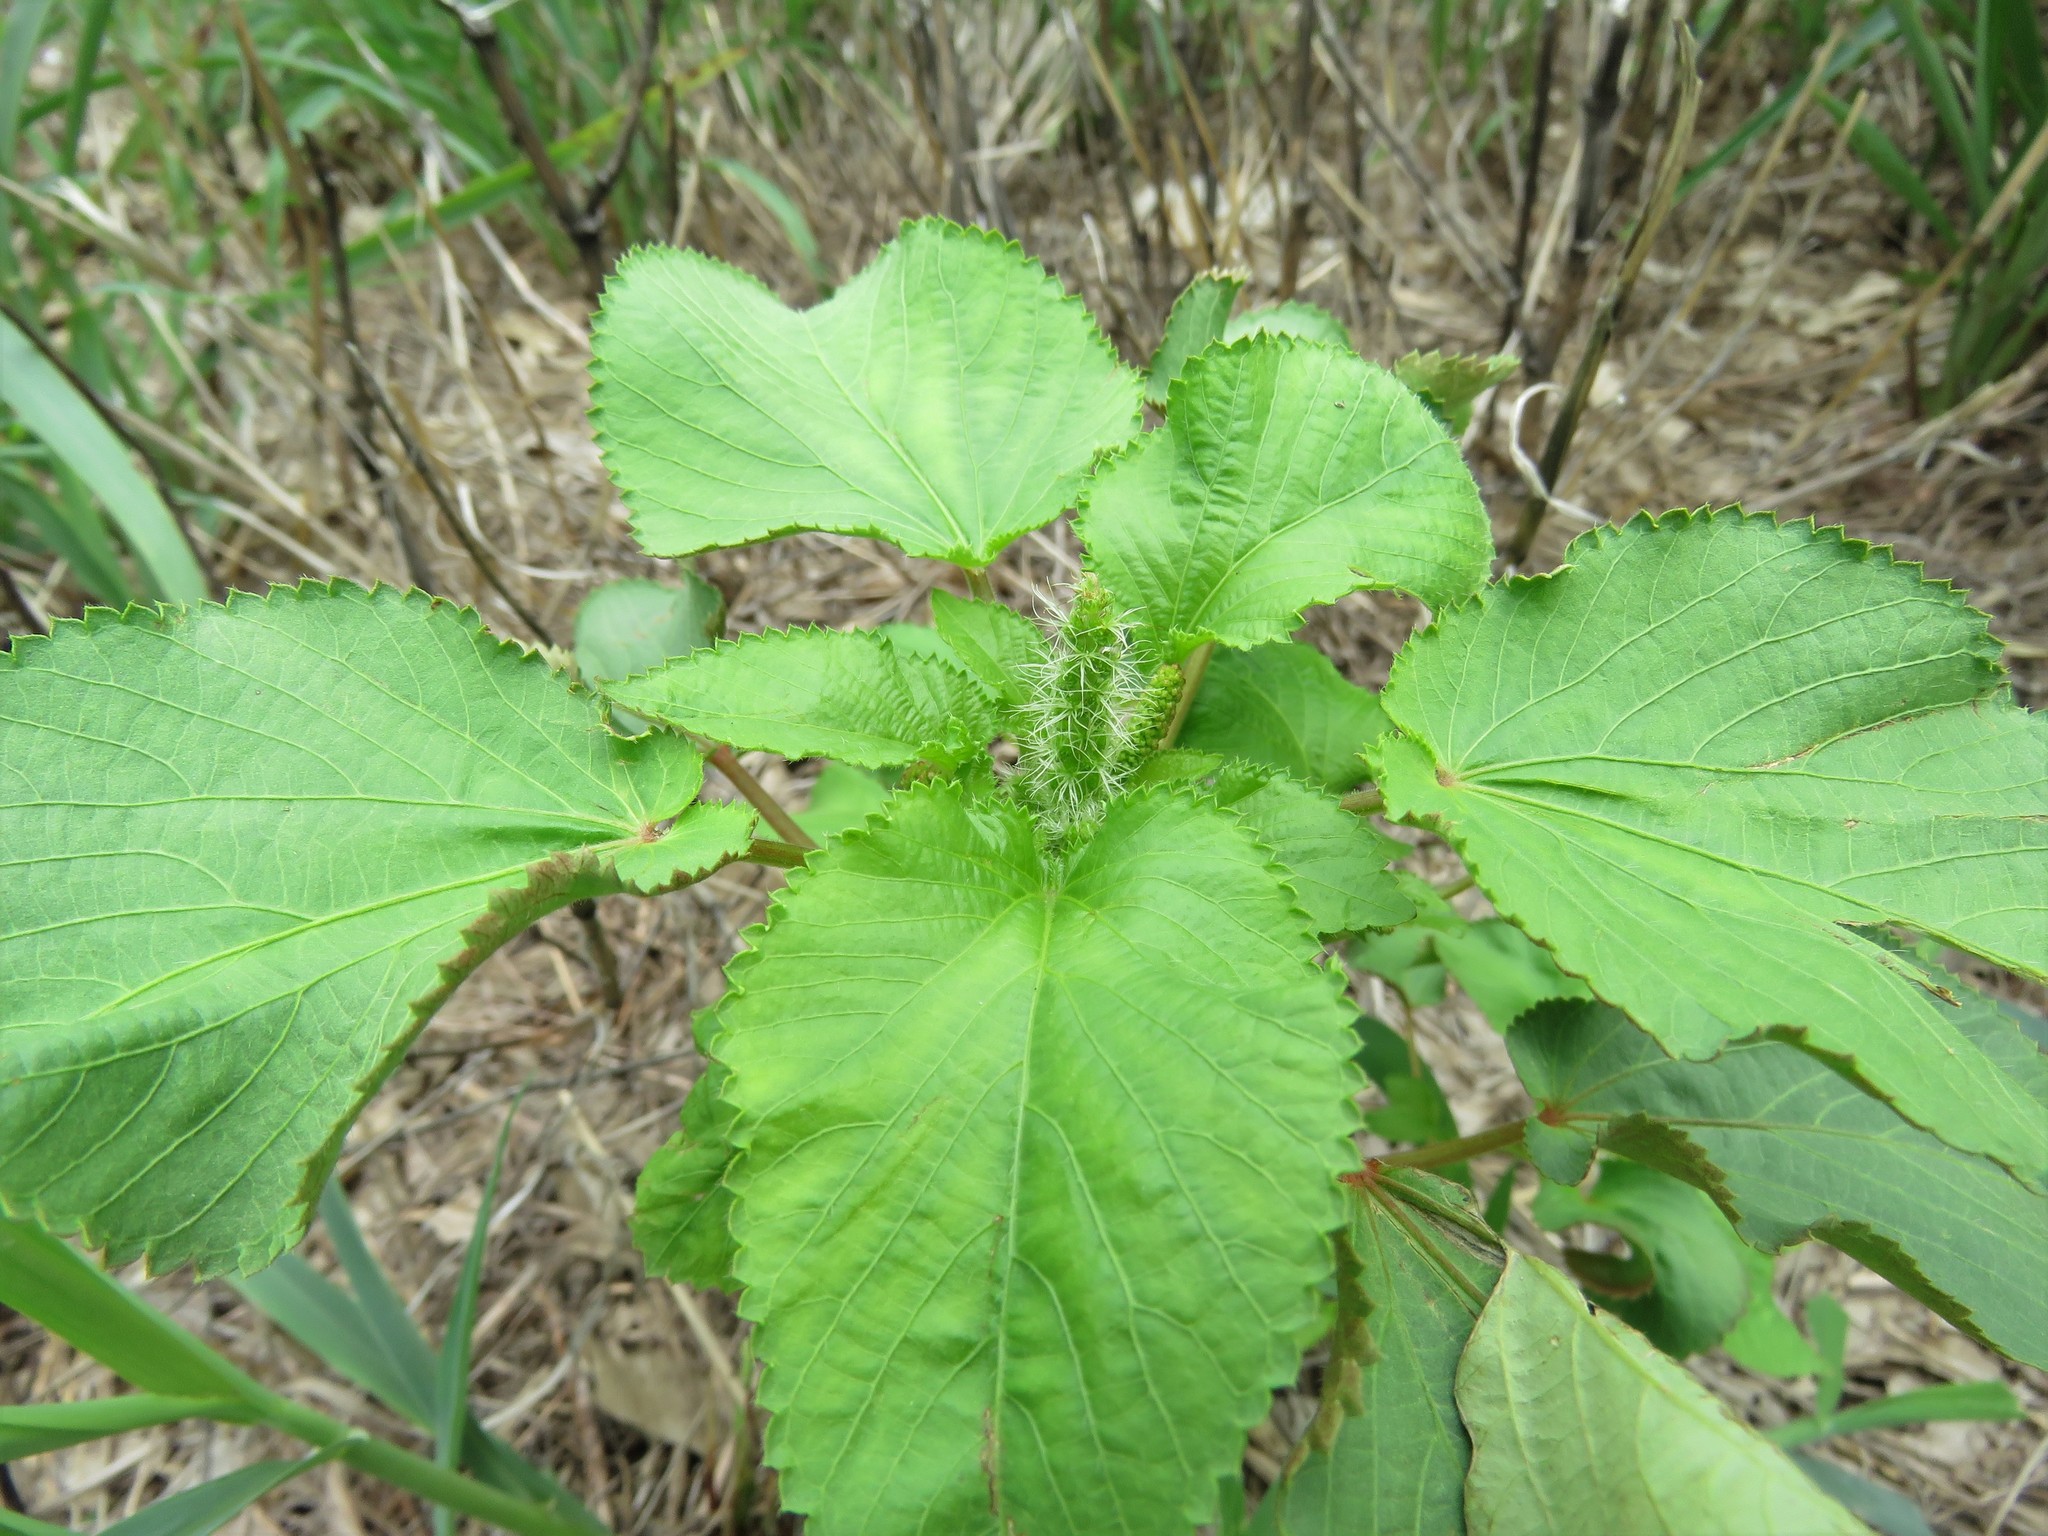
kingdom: Plantae
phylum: Tracheophyta
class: Magnoliopsida
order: Malpighiales
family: Euphorbiaceae
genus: Acalypha
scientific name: Acalypha ostryifolia
